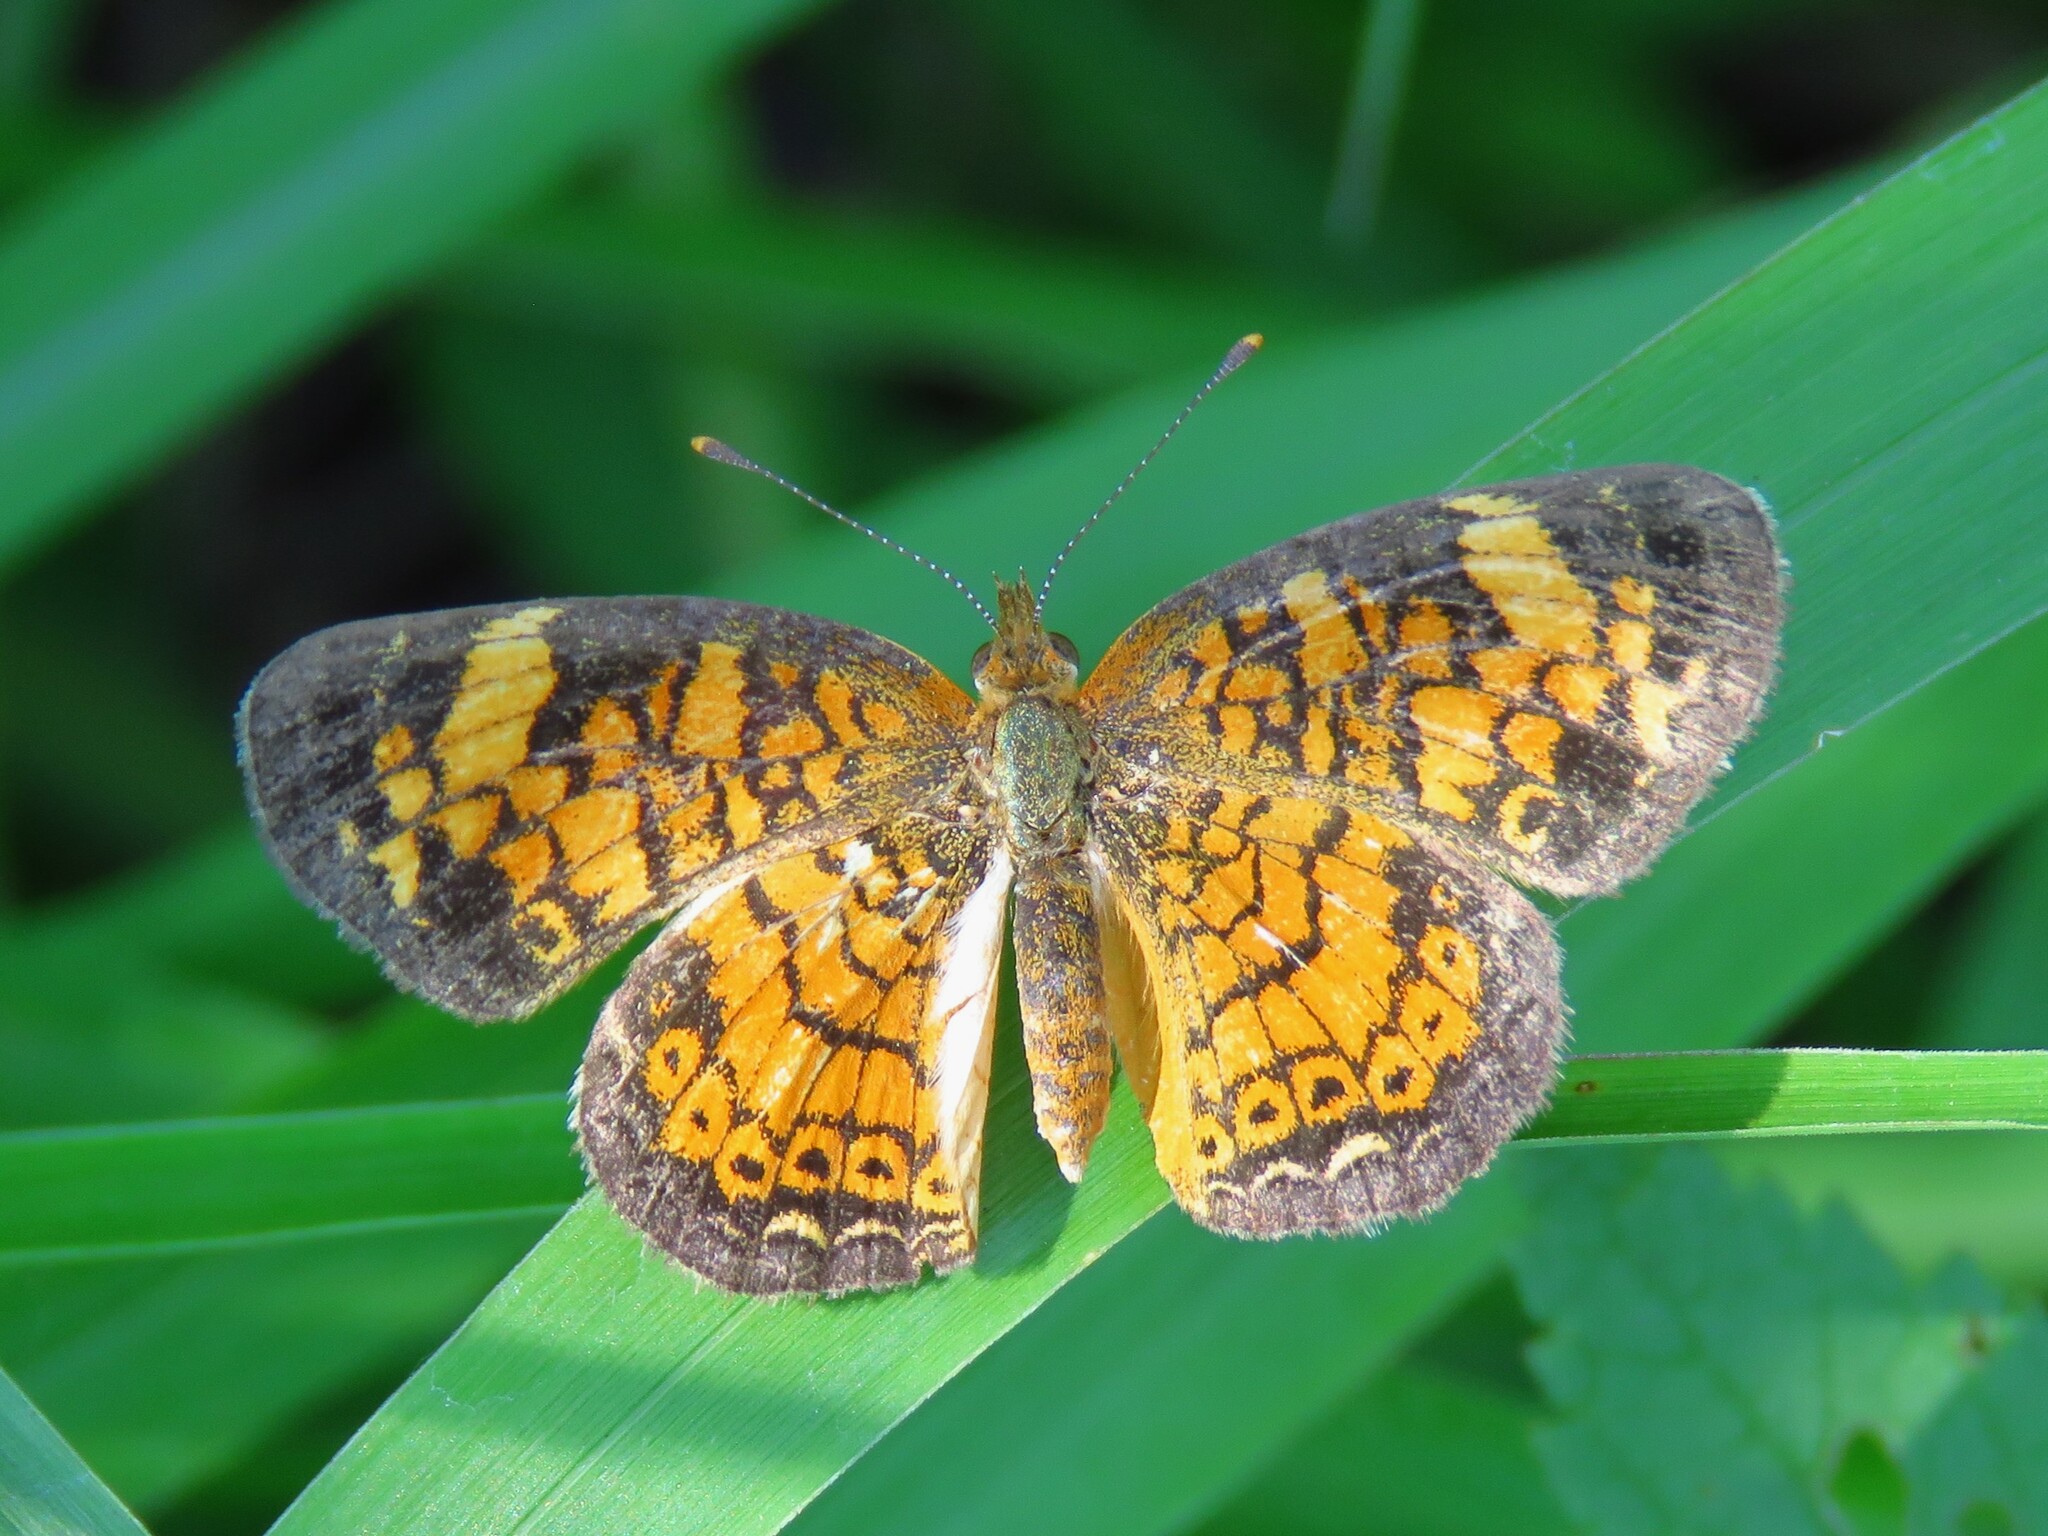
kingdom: Animalia
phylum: Arthropoda
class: Insecta
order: Lepidoptera
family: Nymphalidae
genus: Phyciodes
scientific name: Phyciodes tharos
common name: Pearl crescent
